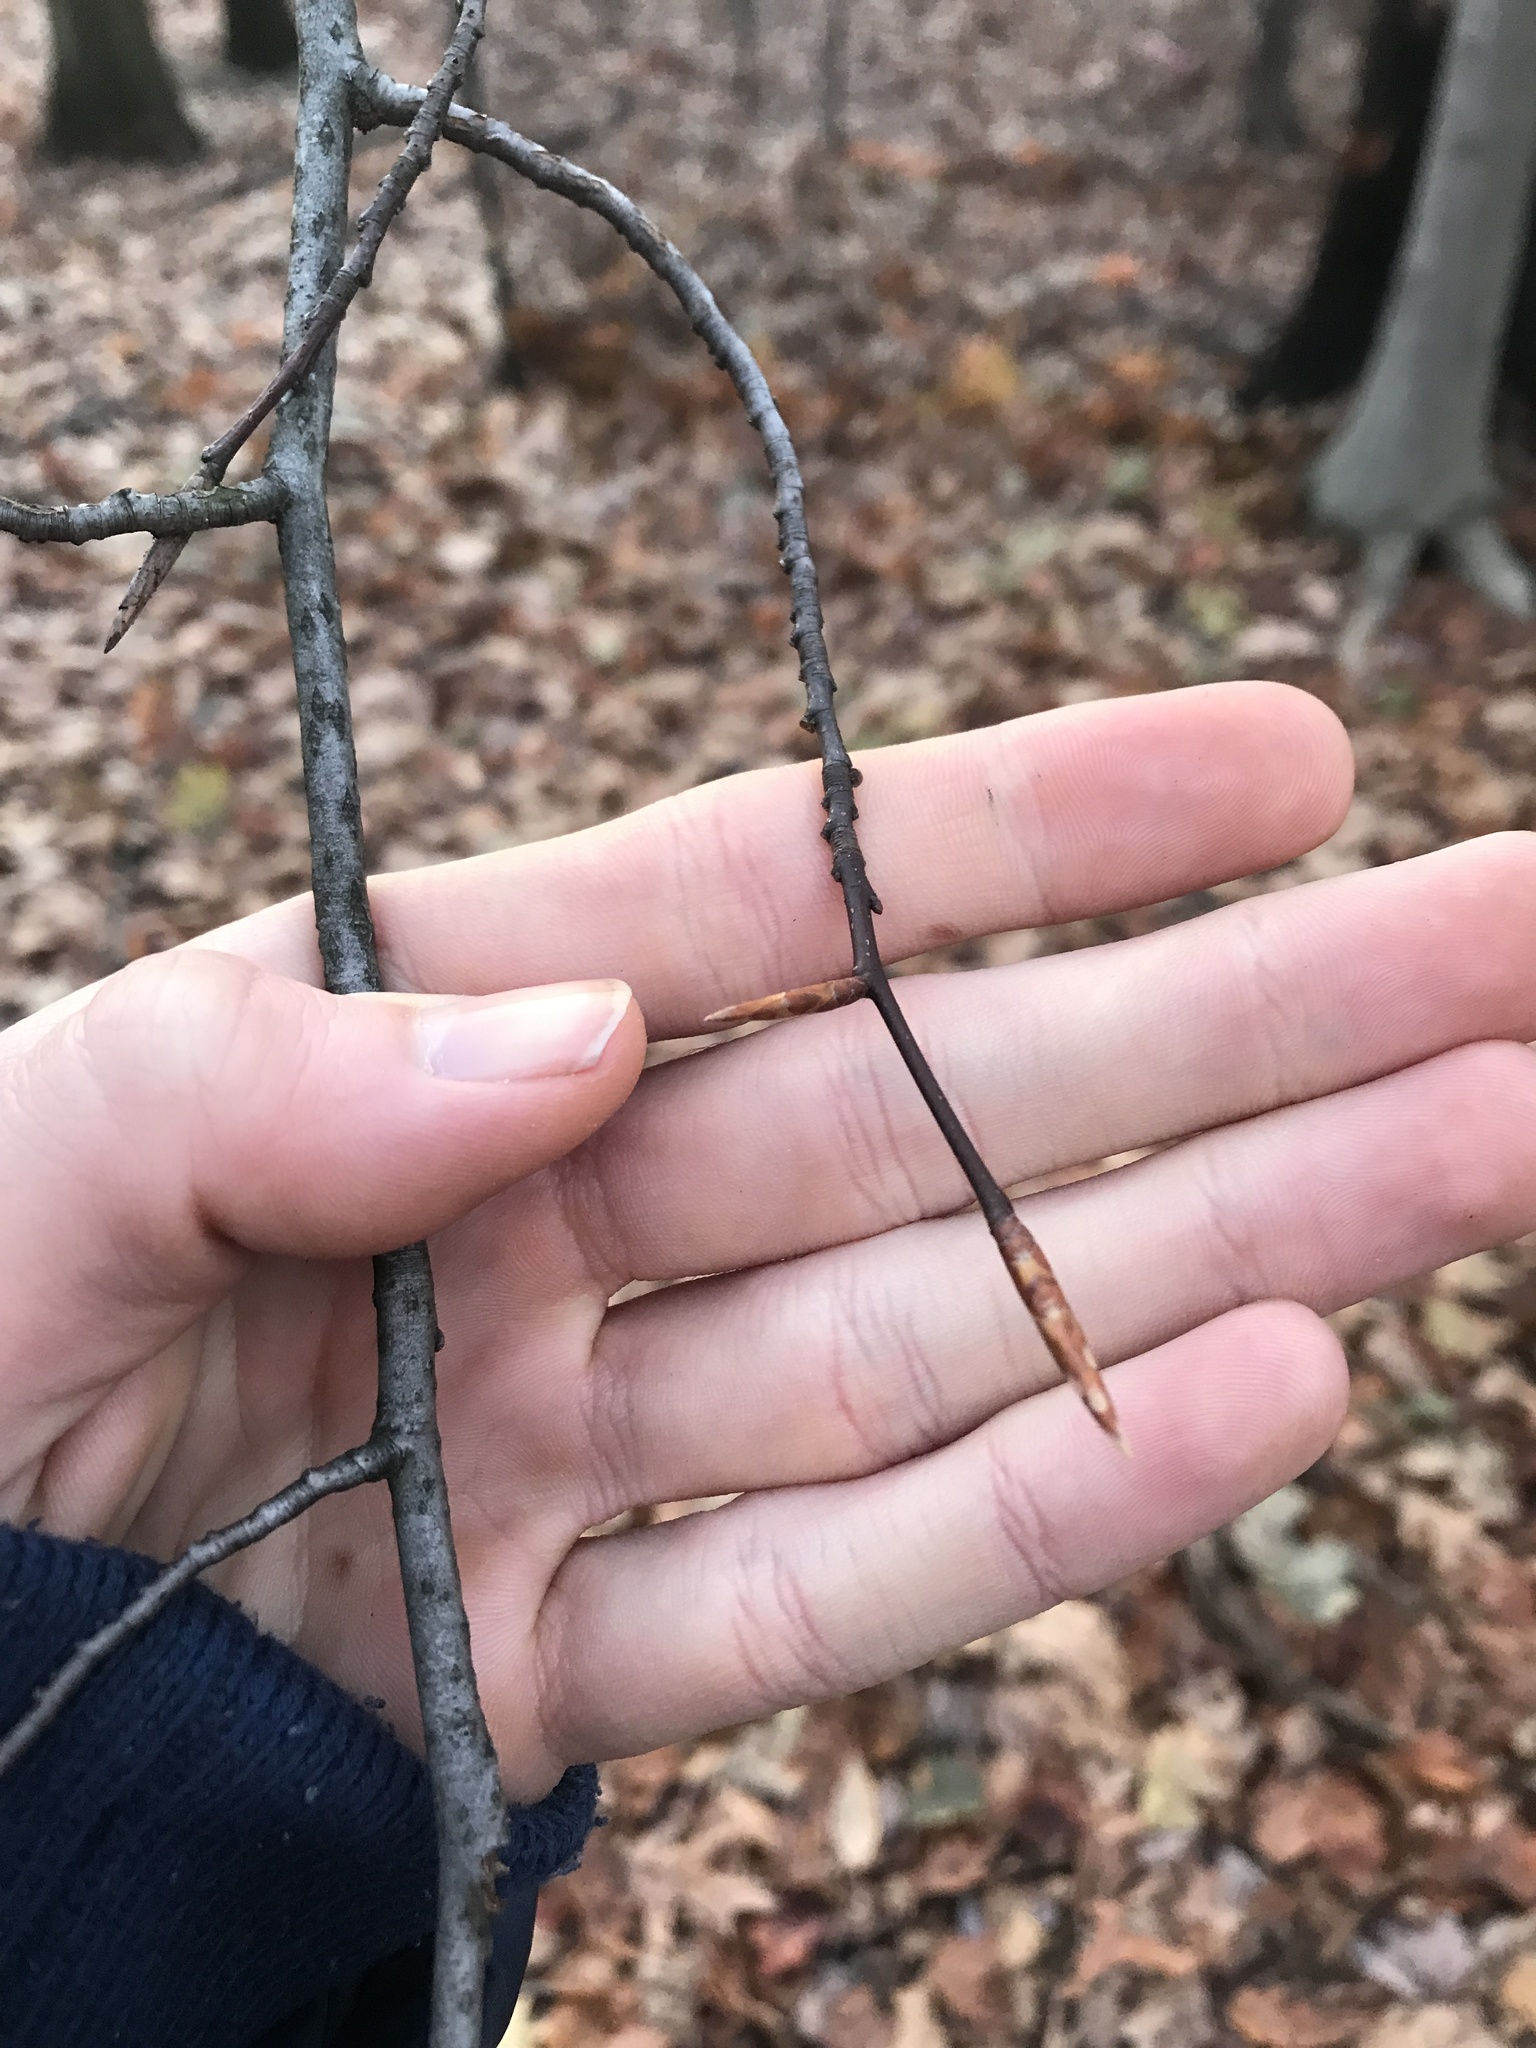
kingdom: Plantae
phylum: Tracheophyta
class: Magnoliopsida
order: Fagales
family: Fagaceae
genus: Fagus
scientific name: Fagus grandifolia
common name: American beech
